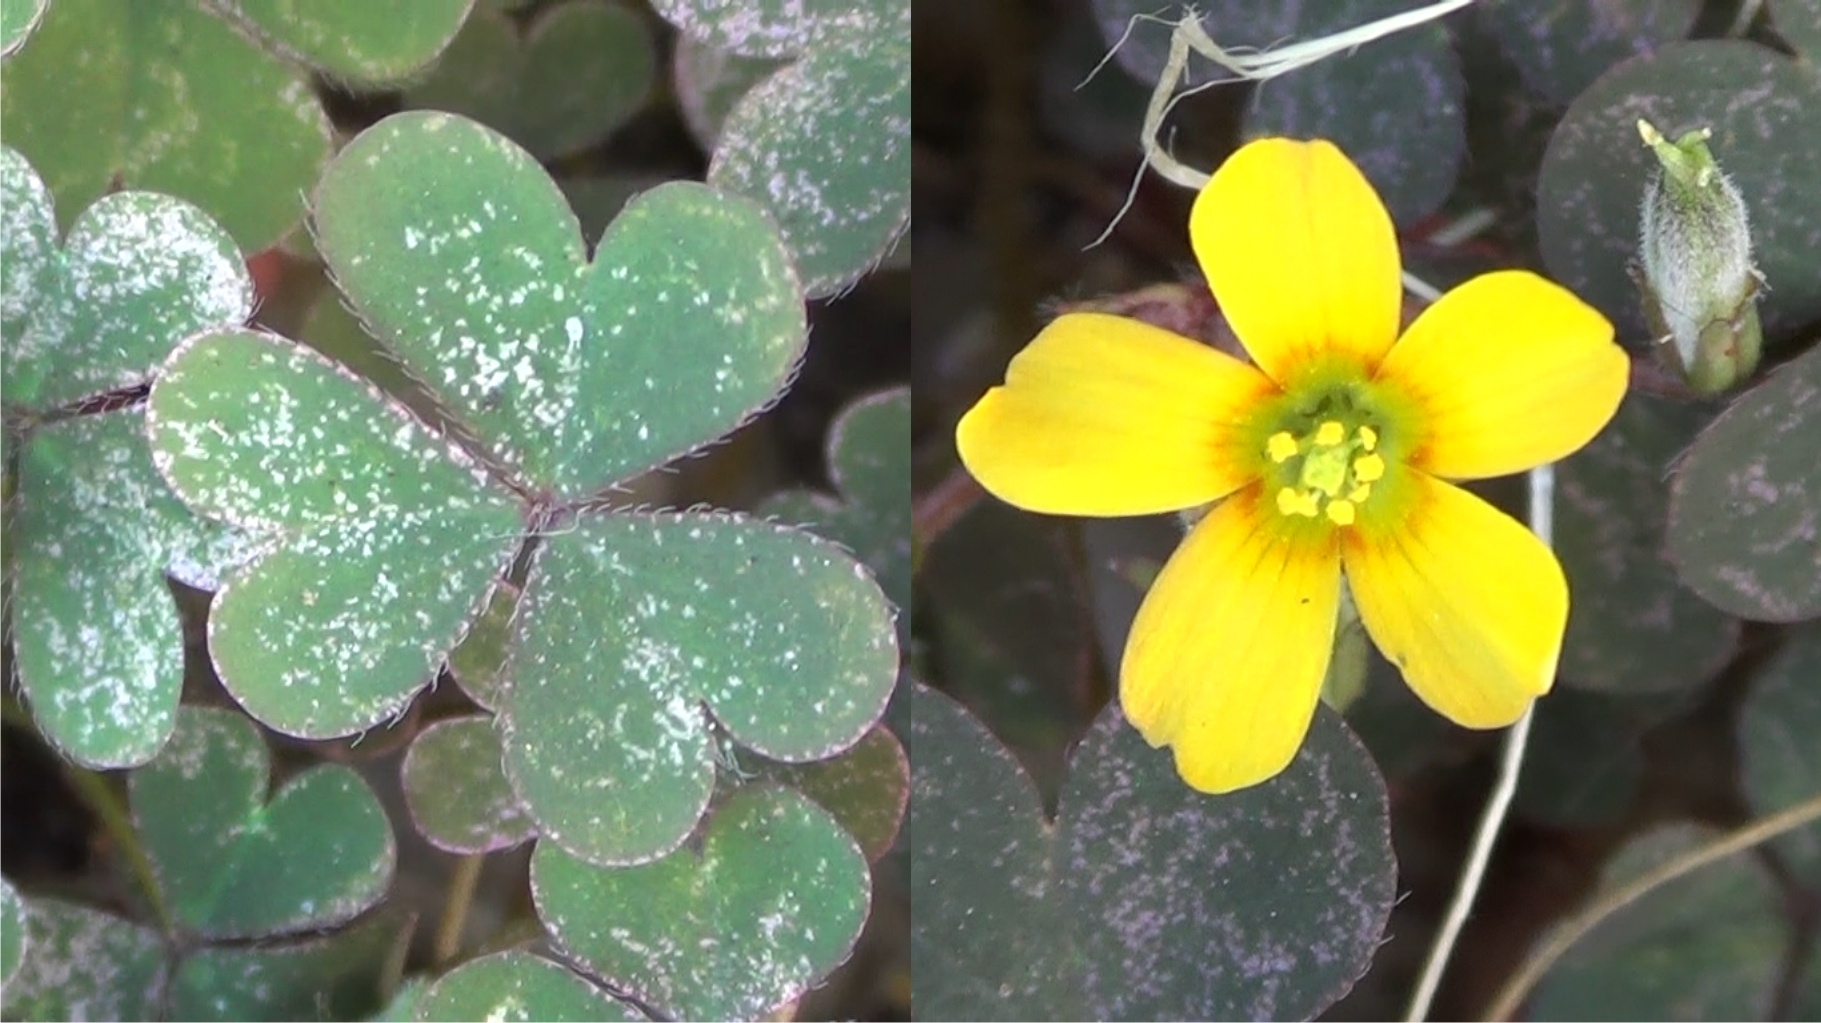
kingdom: Plantae
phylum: Tracheophyta
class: Magnoliopsida
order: Oxalidales
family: Oxalidaceae
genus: Oxalis
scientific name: Oxalis corniculata
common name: Procumbent yellow-sorrel
